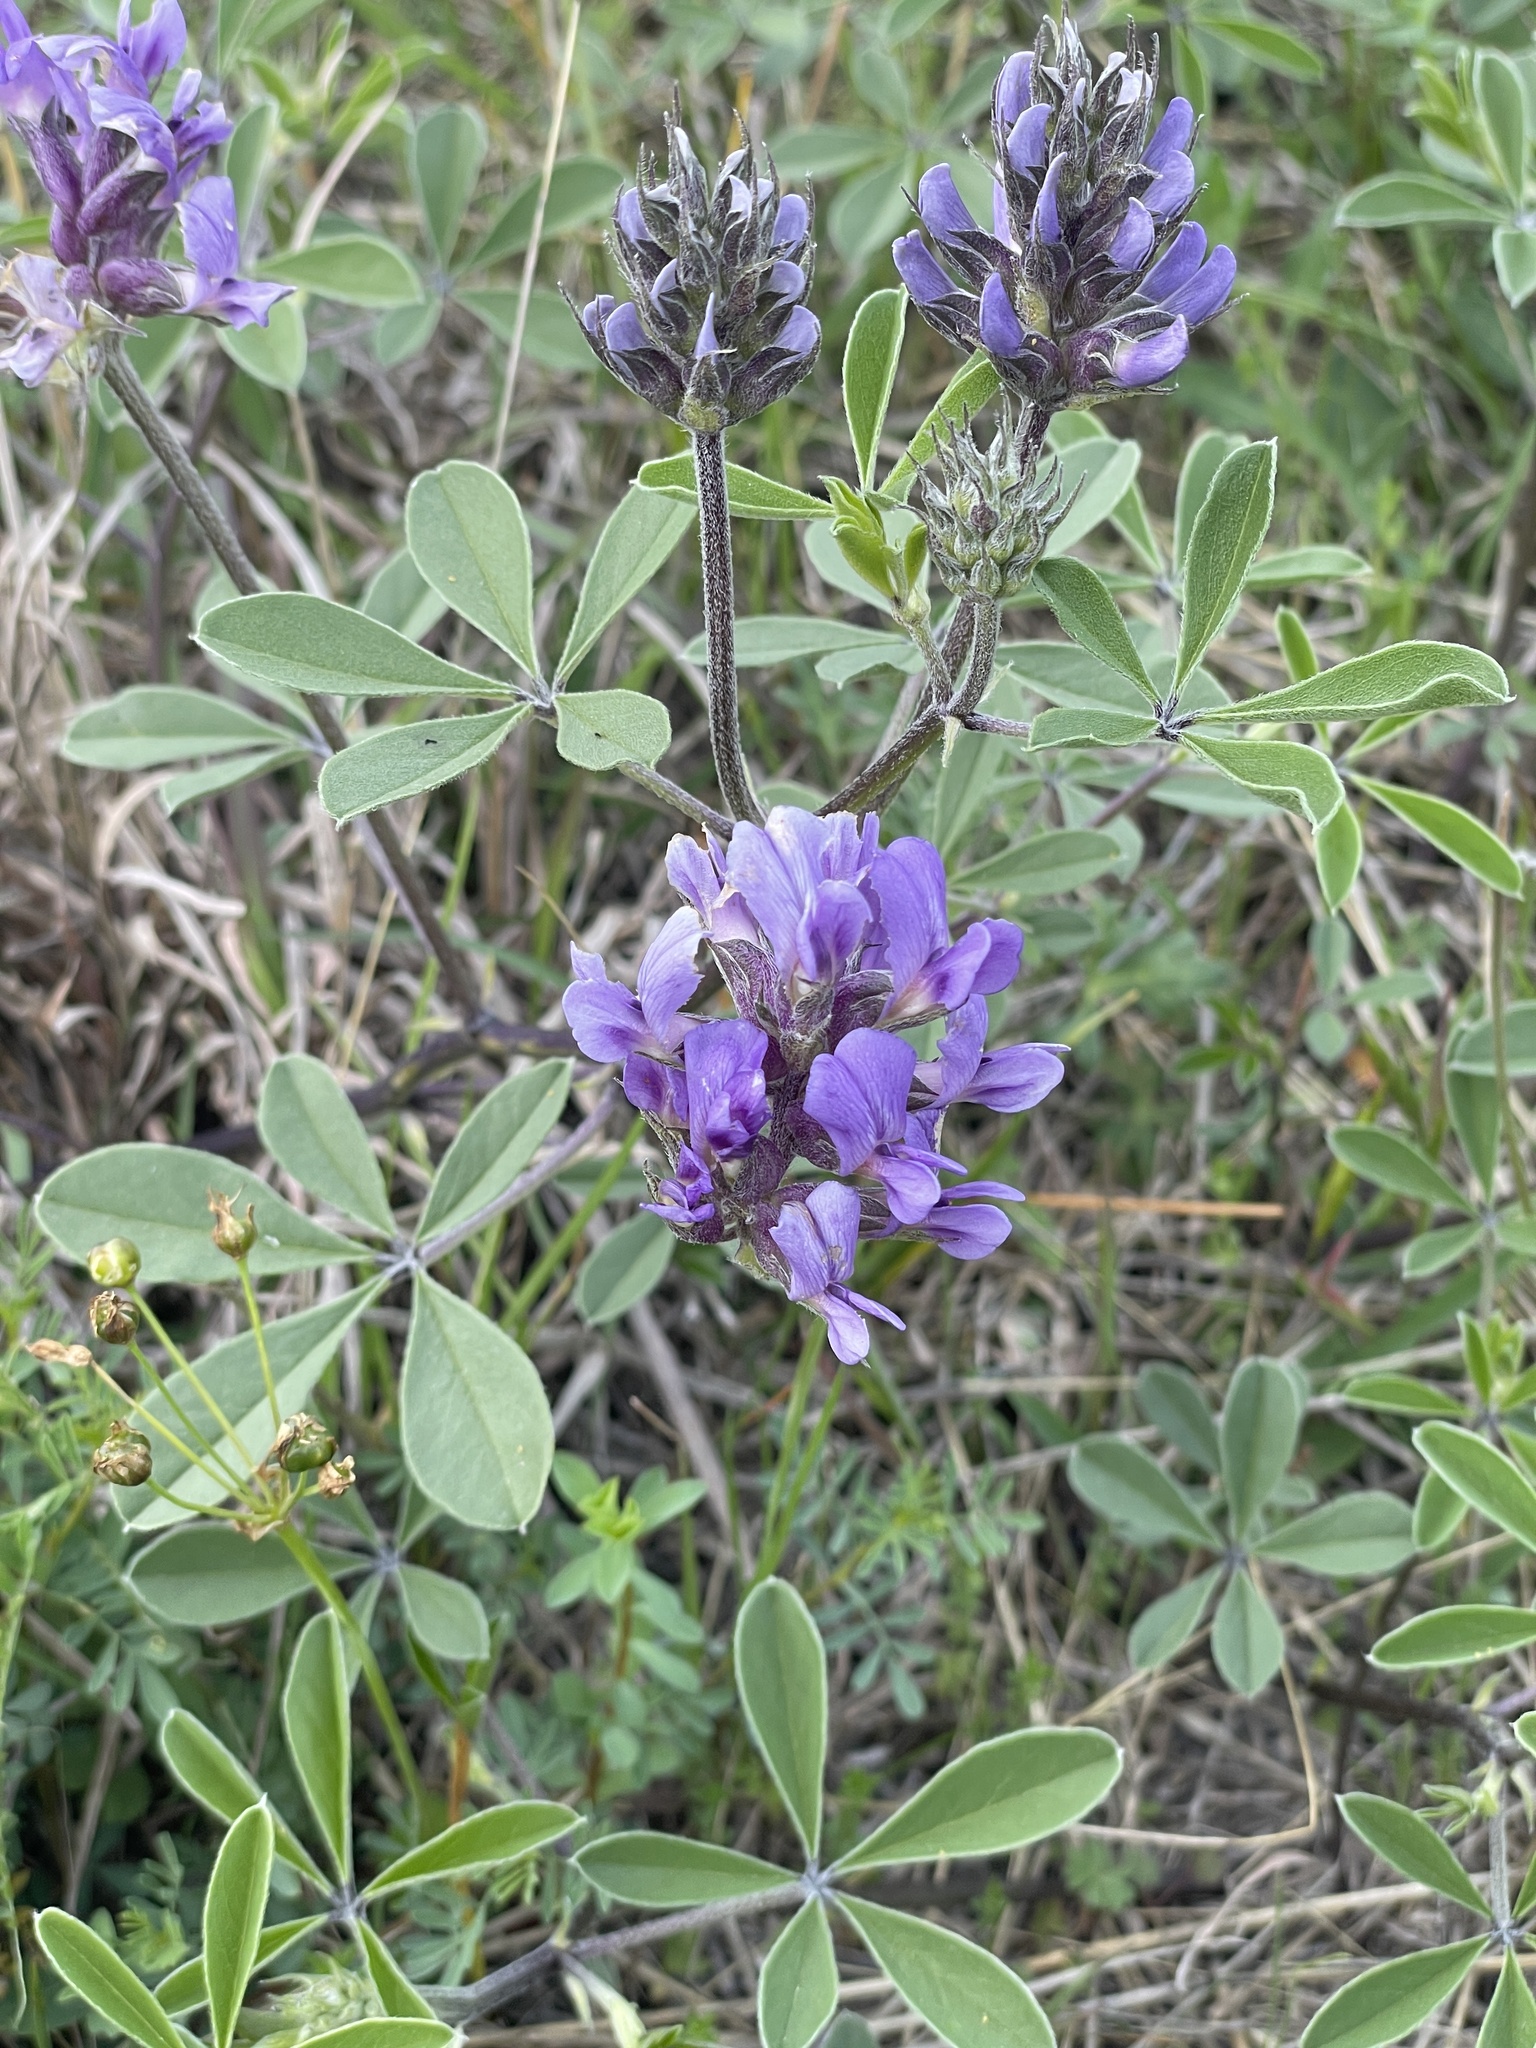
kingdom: Plantae
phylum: Tracheophyta
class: Magnoliopsida
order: Fabales
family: Fabaceae
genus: Pediomelum
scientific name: Pediomelum cuspidatum
